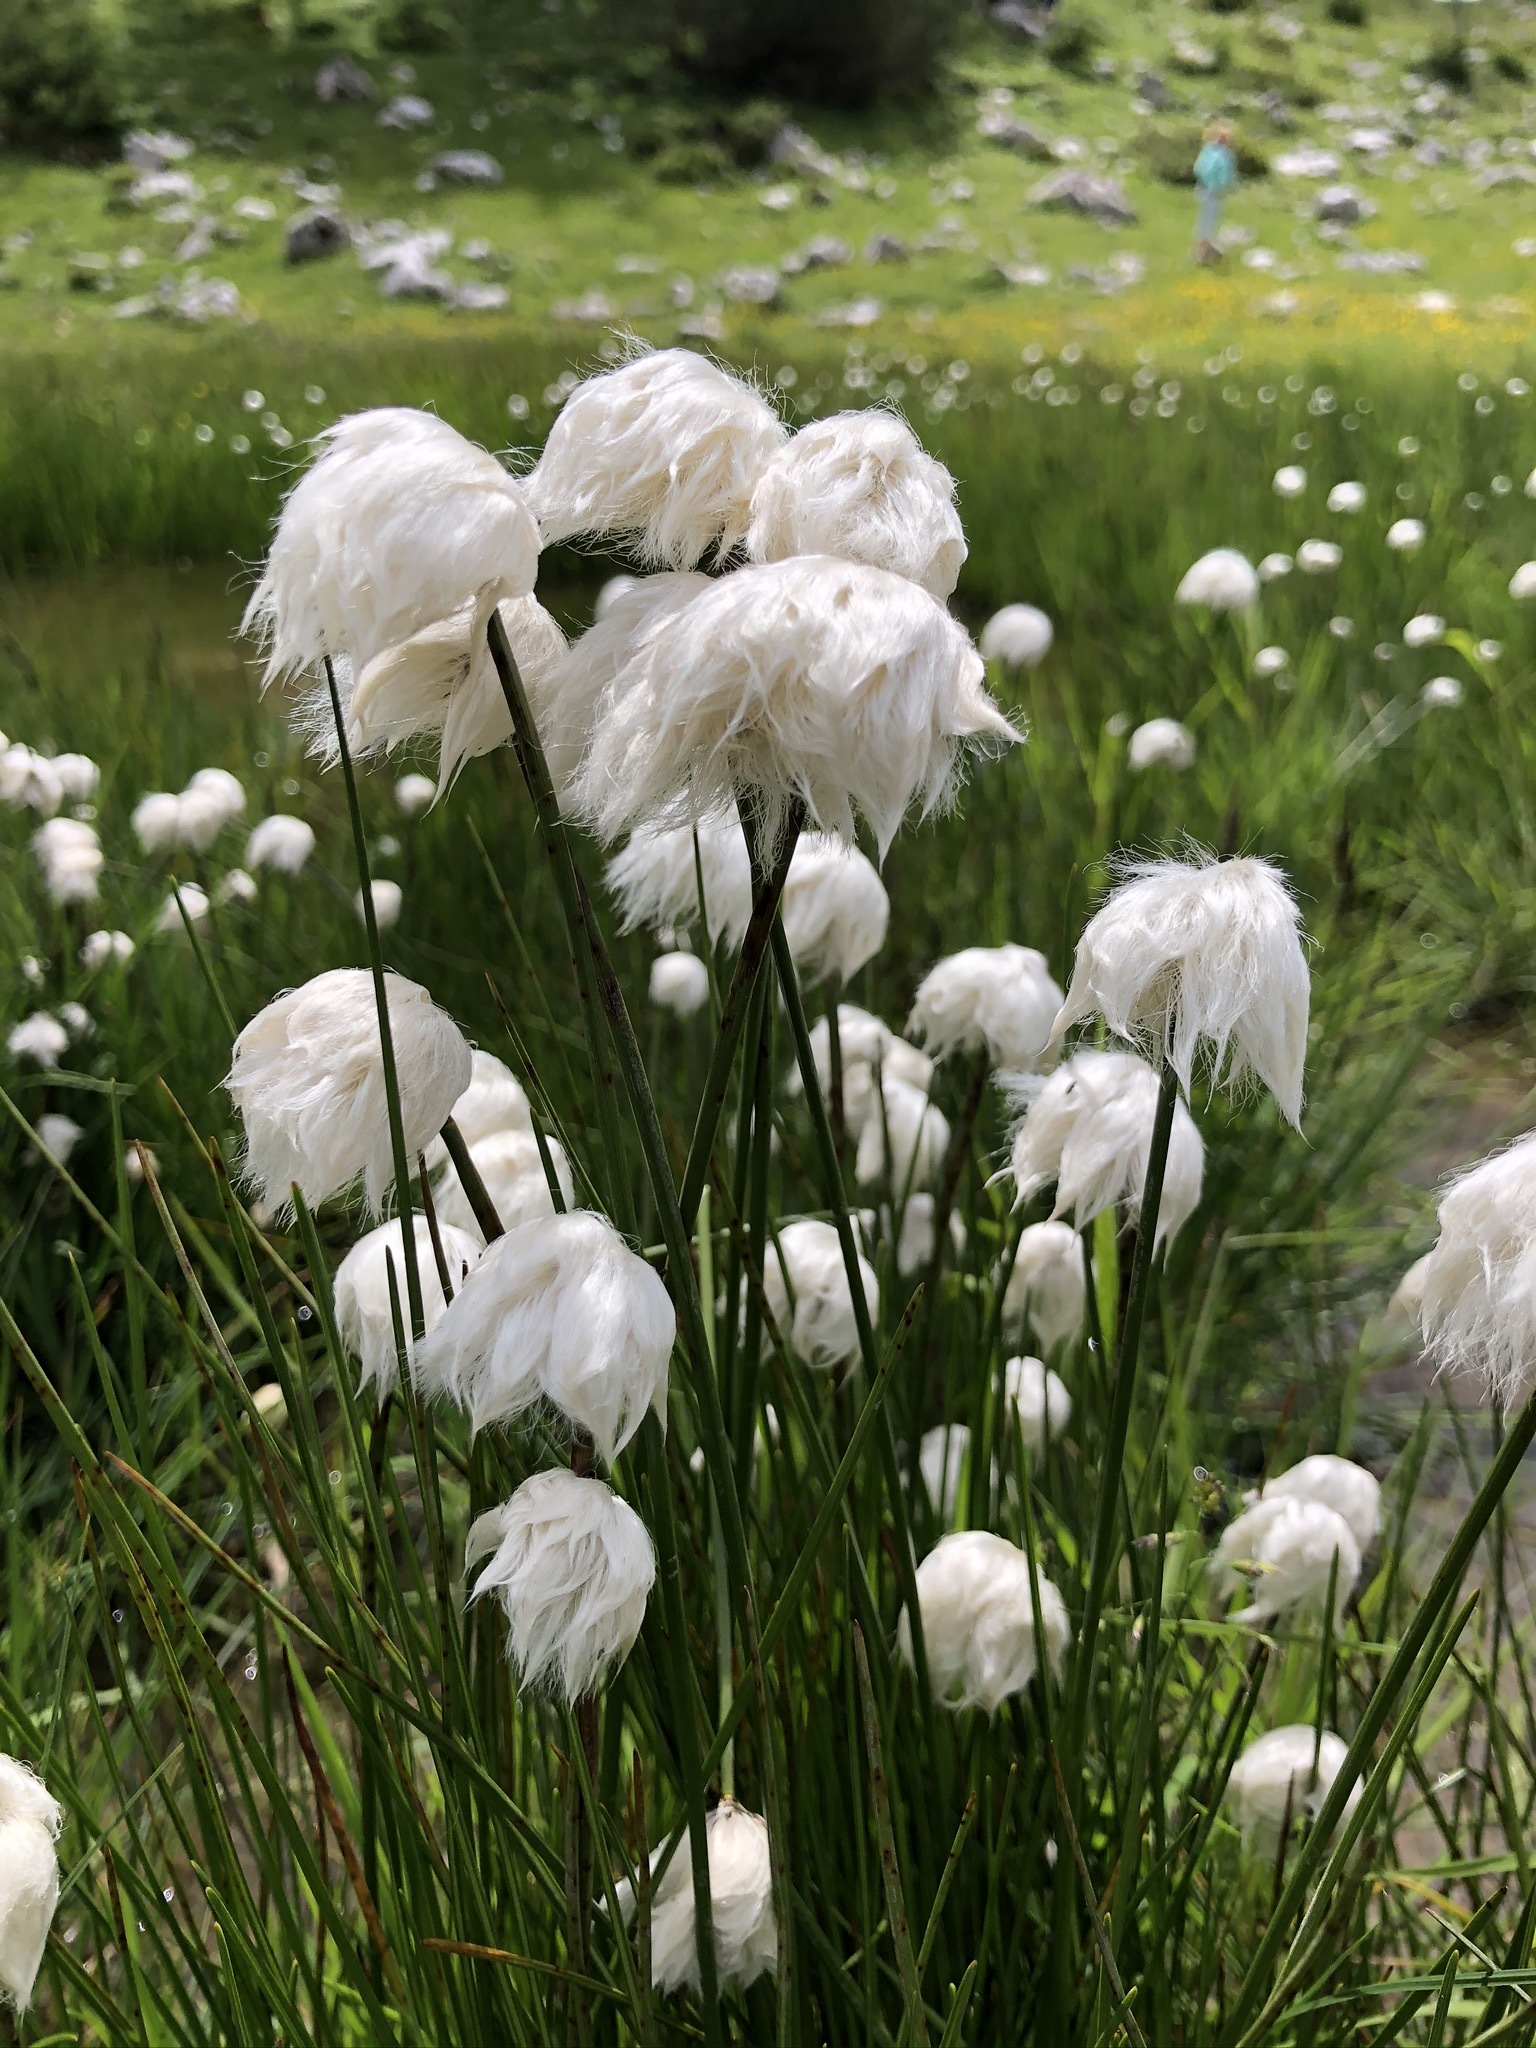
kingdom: Plantae
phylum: Tracheophyta
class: Liliopsida
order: Poales
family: Cyperaceae
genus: Eriophorum
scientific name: Eriophorum scheuchzeri
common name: Scheuchzer's cottongrass
